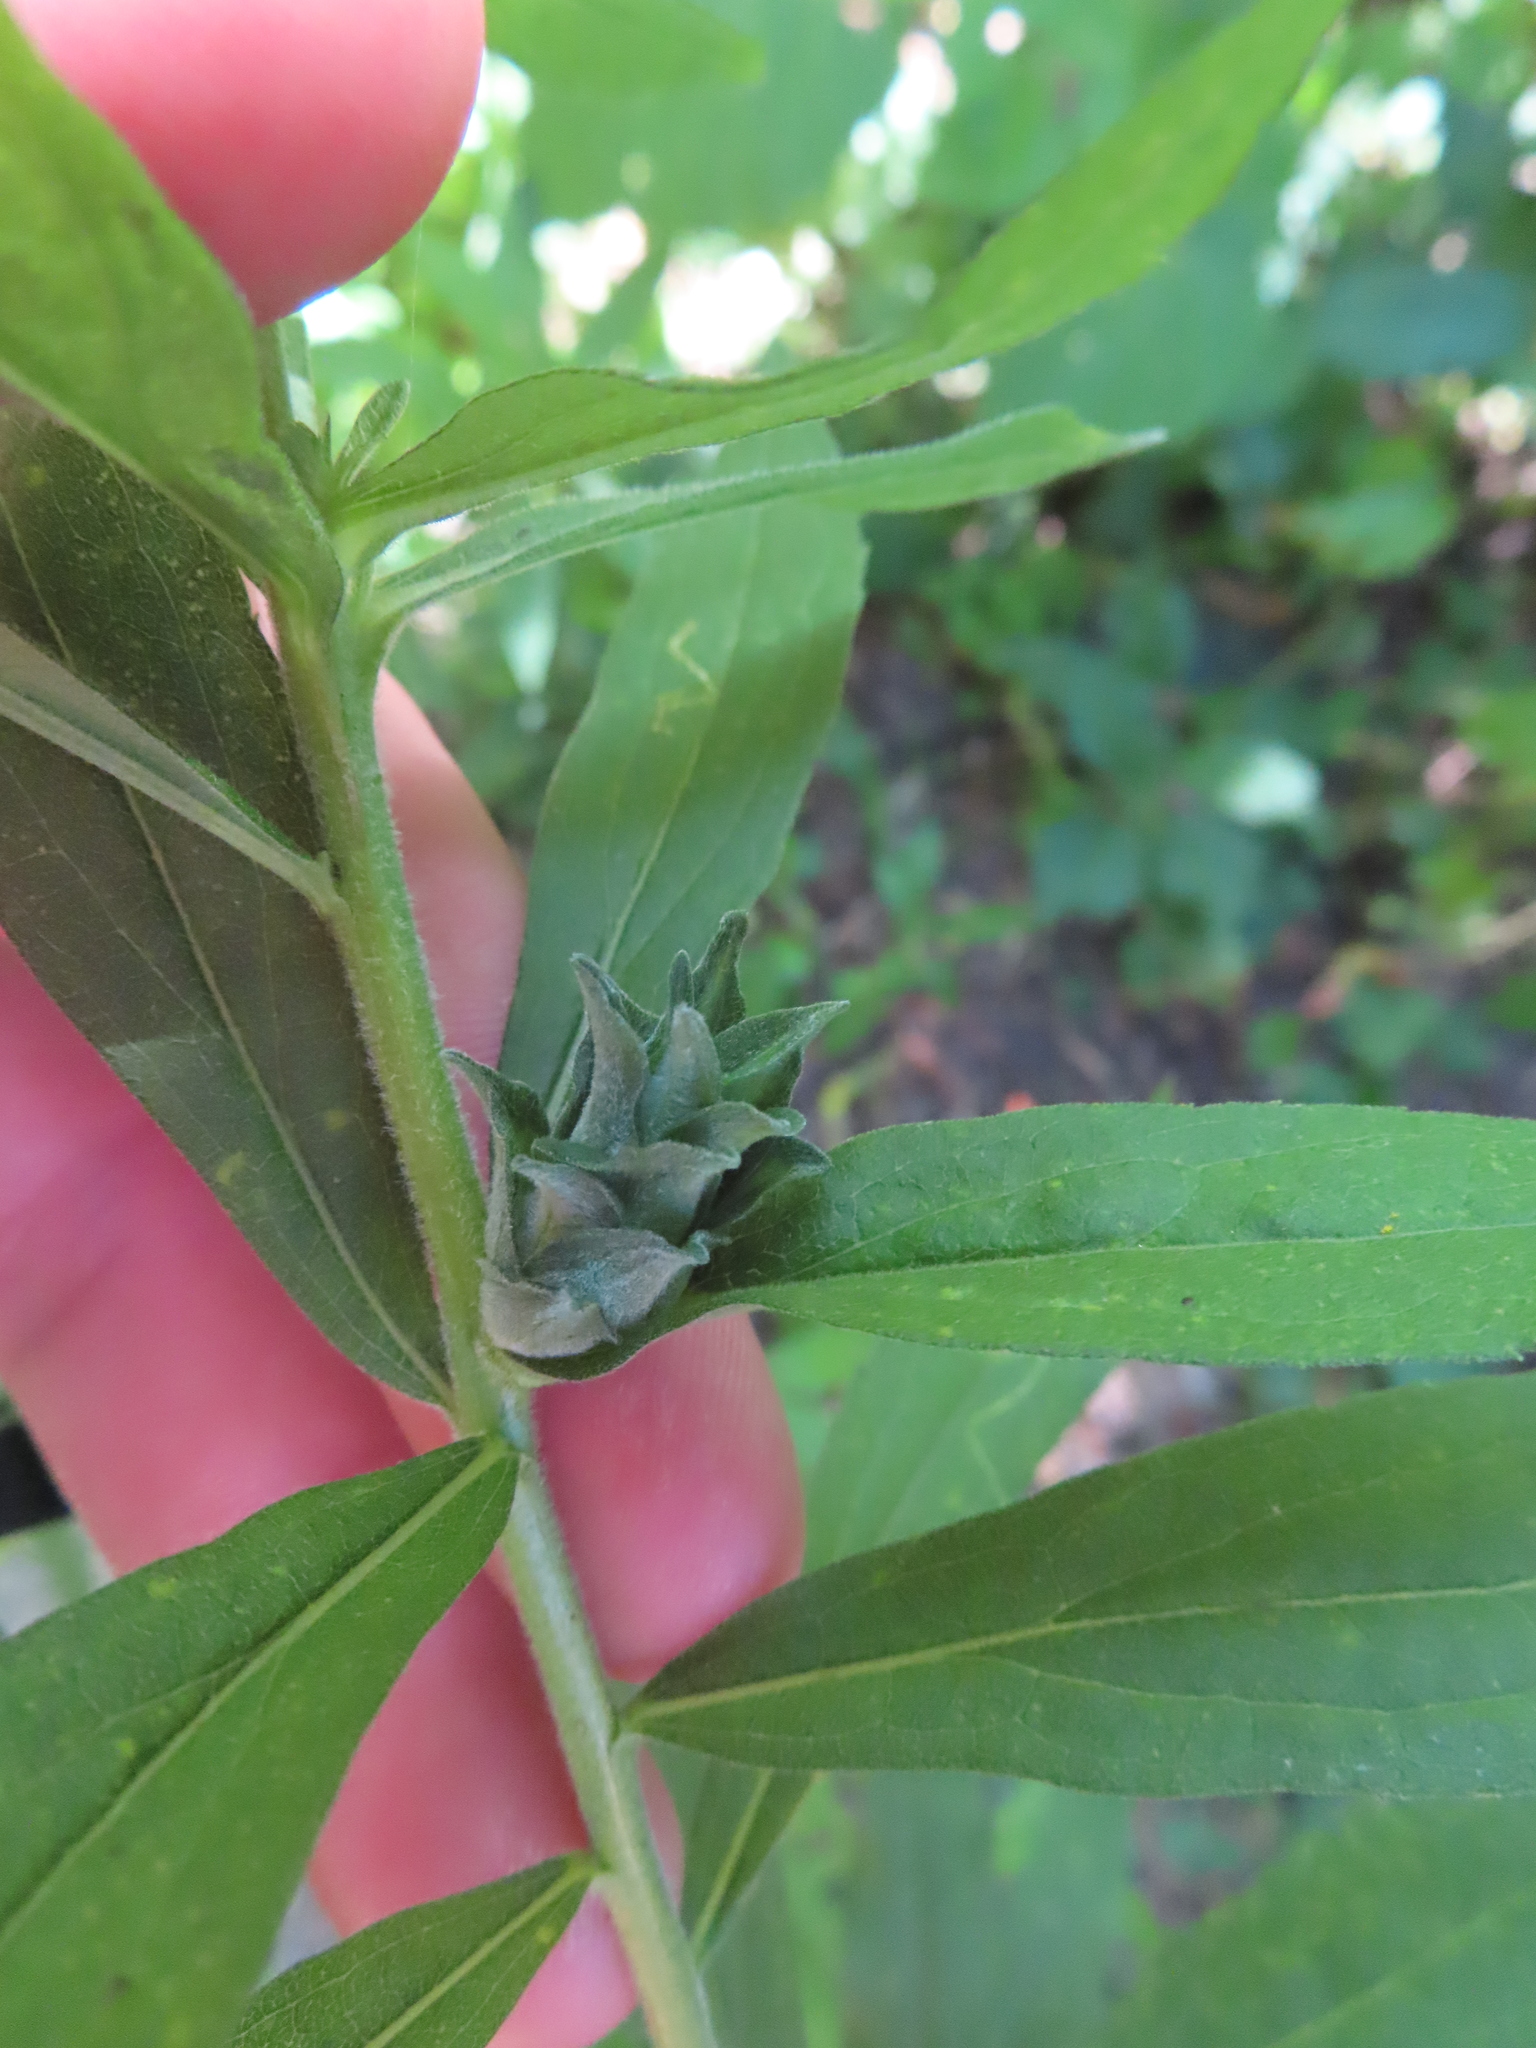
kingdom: Animalia
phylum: Arthropoda
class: Insecta
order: Diptera
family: Tephritidae
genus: Procecidochares
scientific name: Procecidochares atra
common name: Goldenrod brussels sprout gall fly
